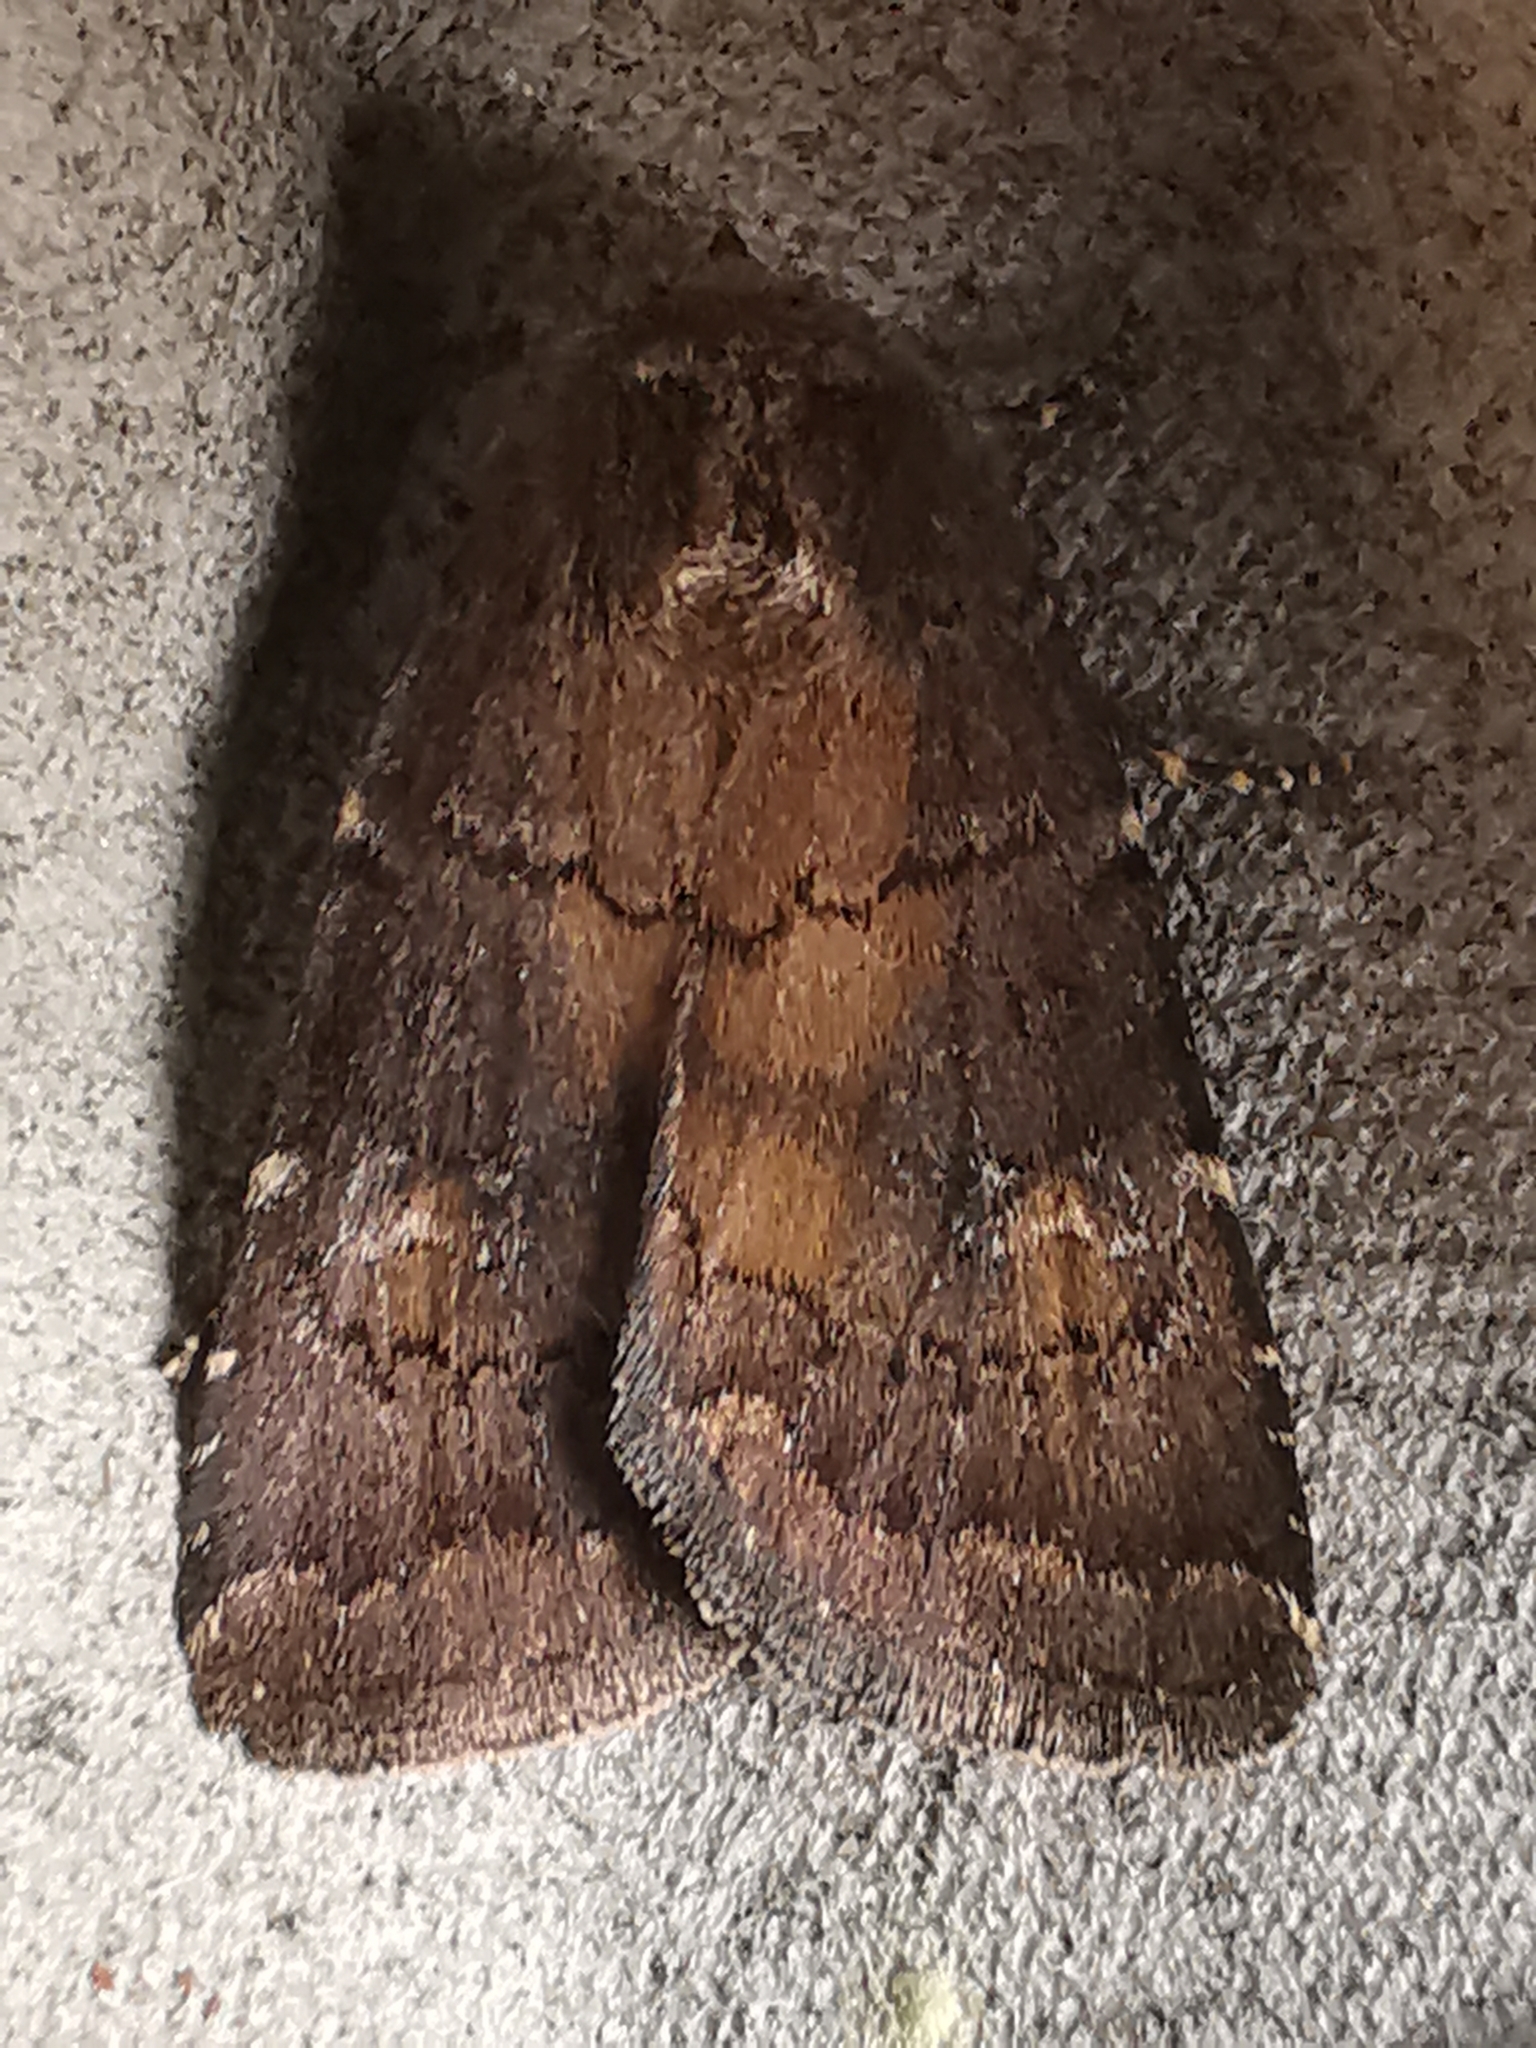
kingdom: Animalia
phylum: Arthropoda
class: Insecta
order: Lepidoptera
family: Noctuidae
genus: Charanyca
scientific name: Charanyca ferruginea
